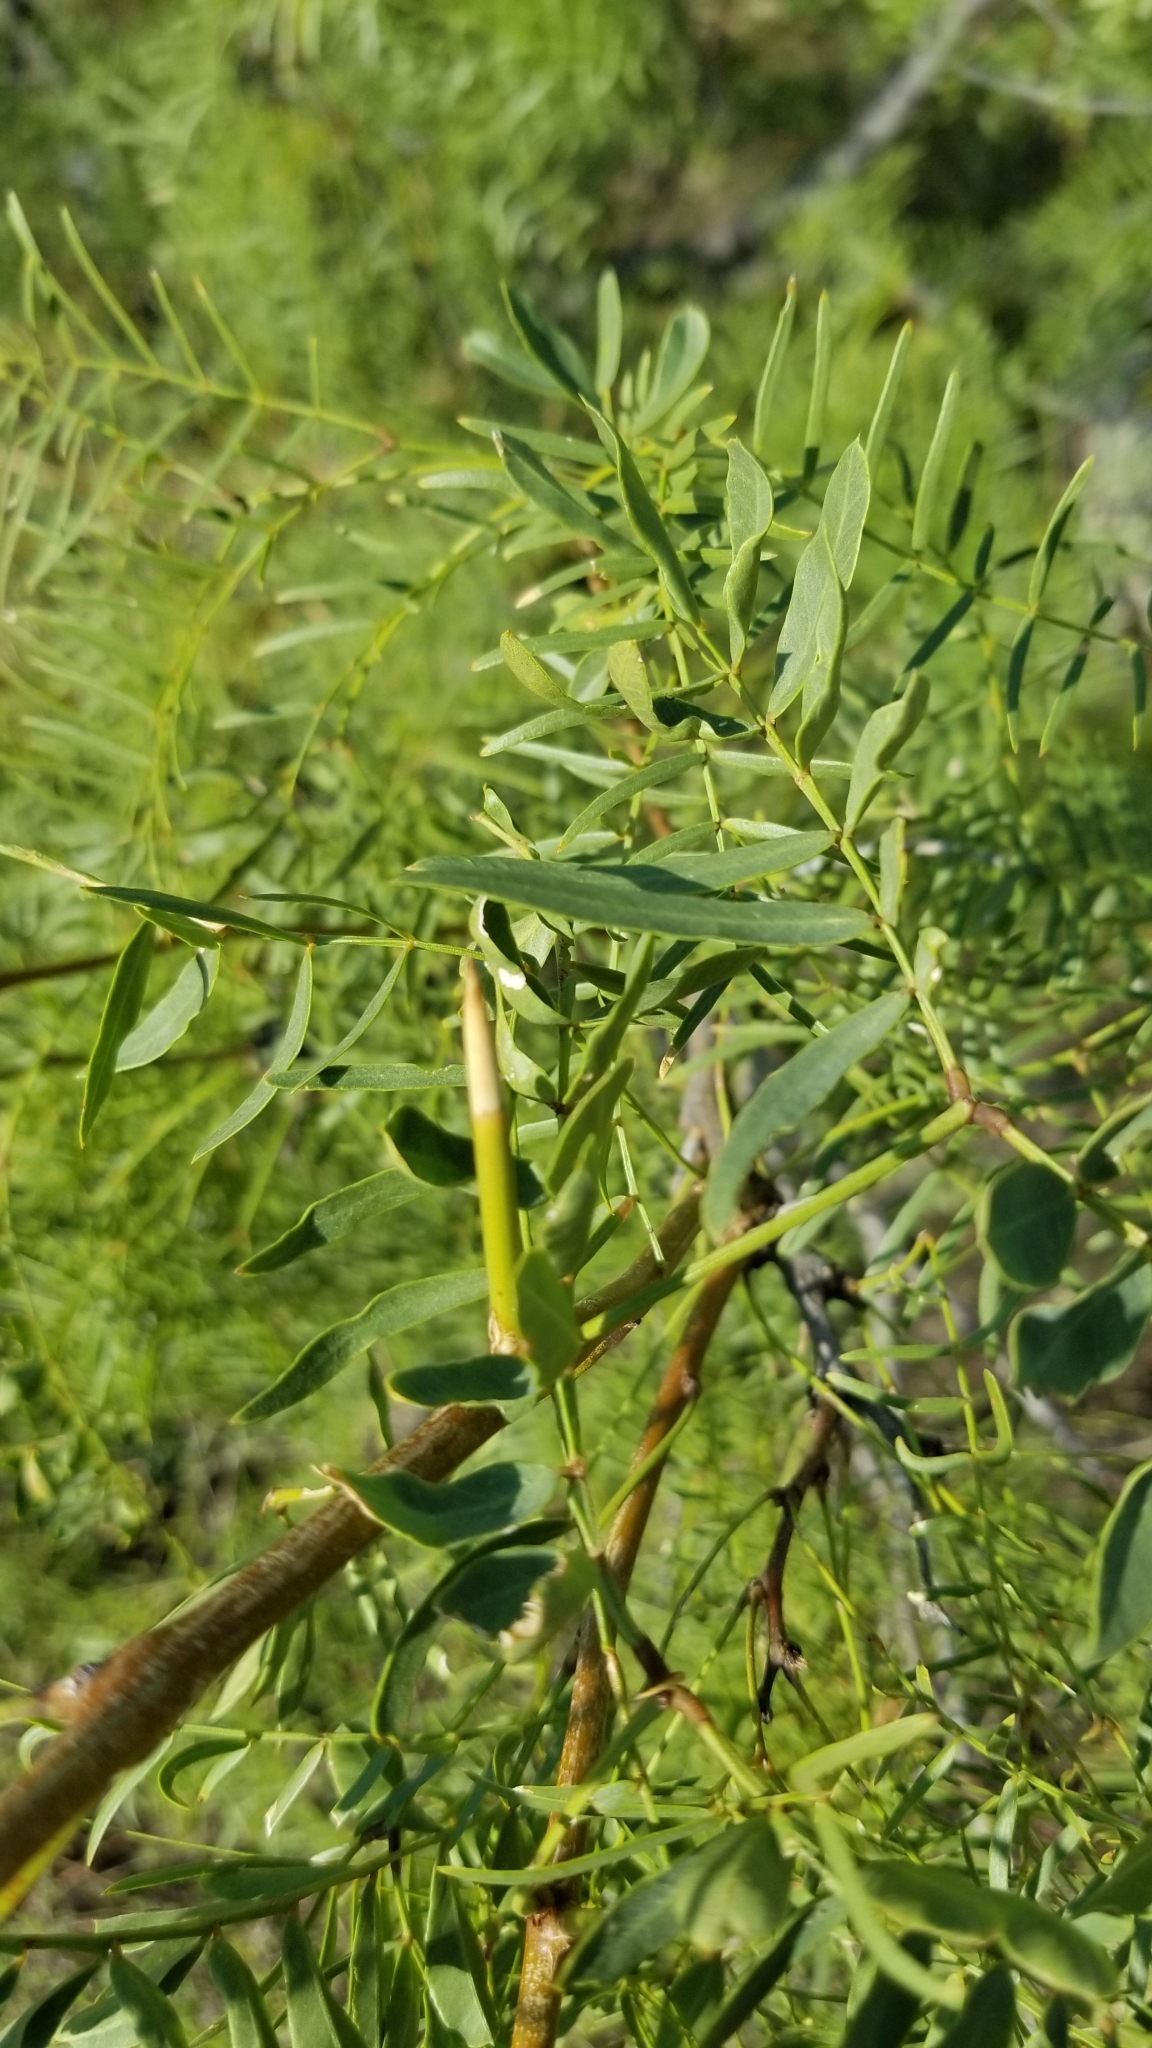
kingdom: Plantae
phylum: Tracheophyta
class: Magnoliopsida
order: Fabales
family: Fabaceae
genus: Prosopis
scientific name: Prosopis glandulosa
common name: Honey mesquite
